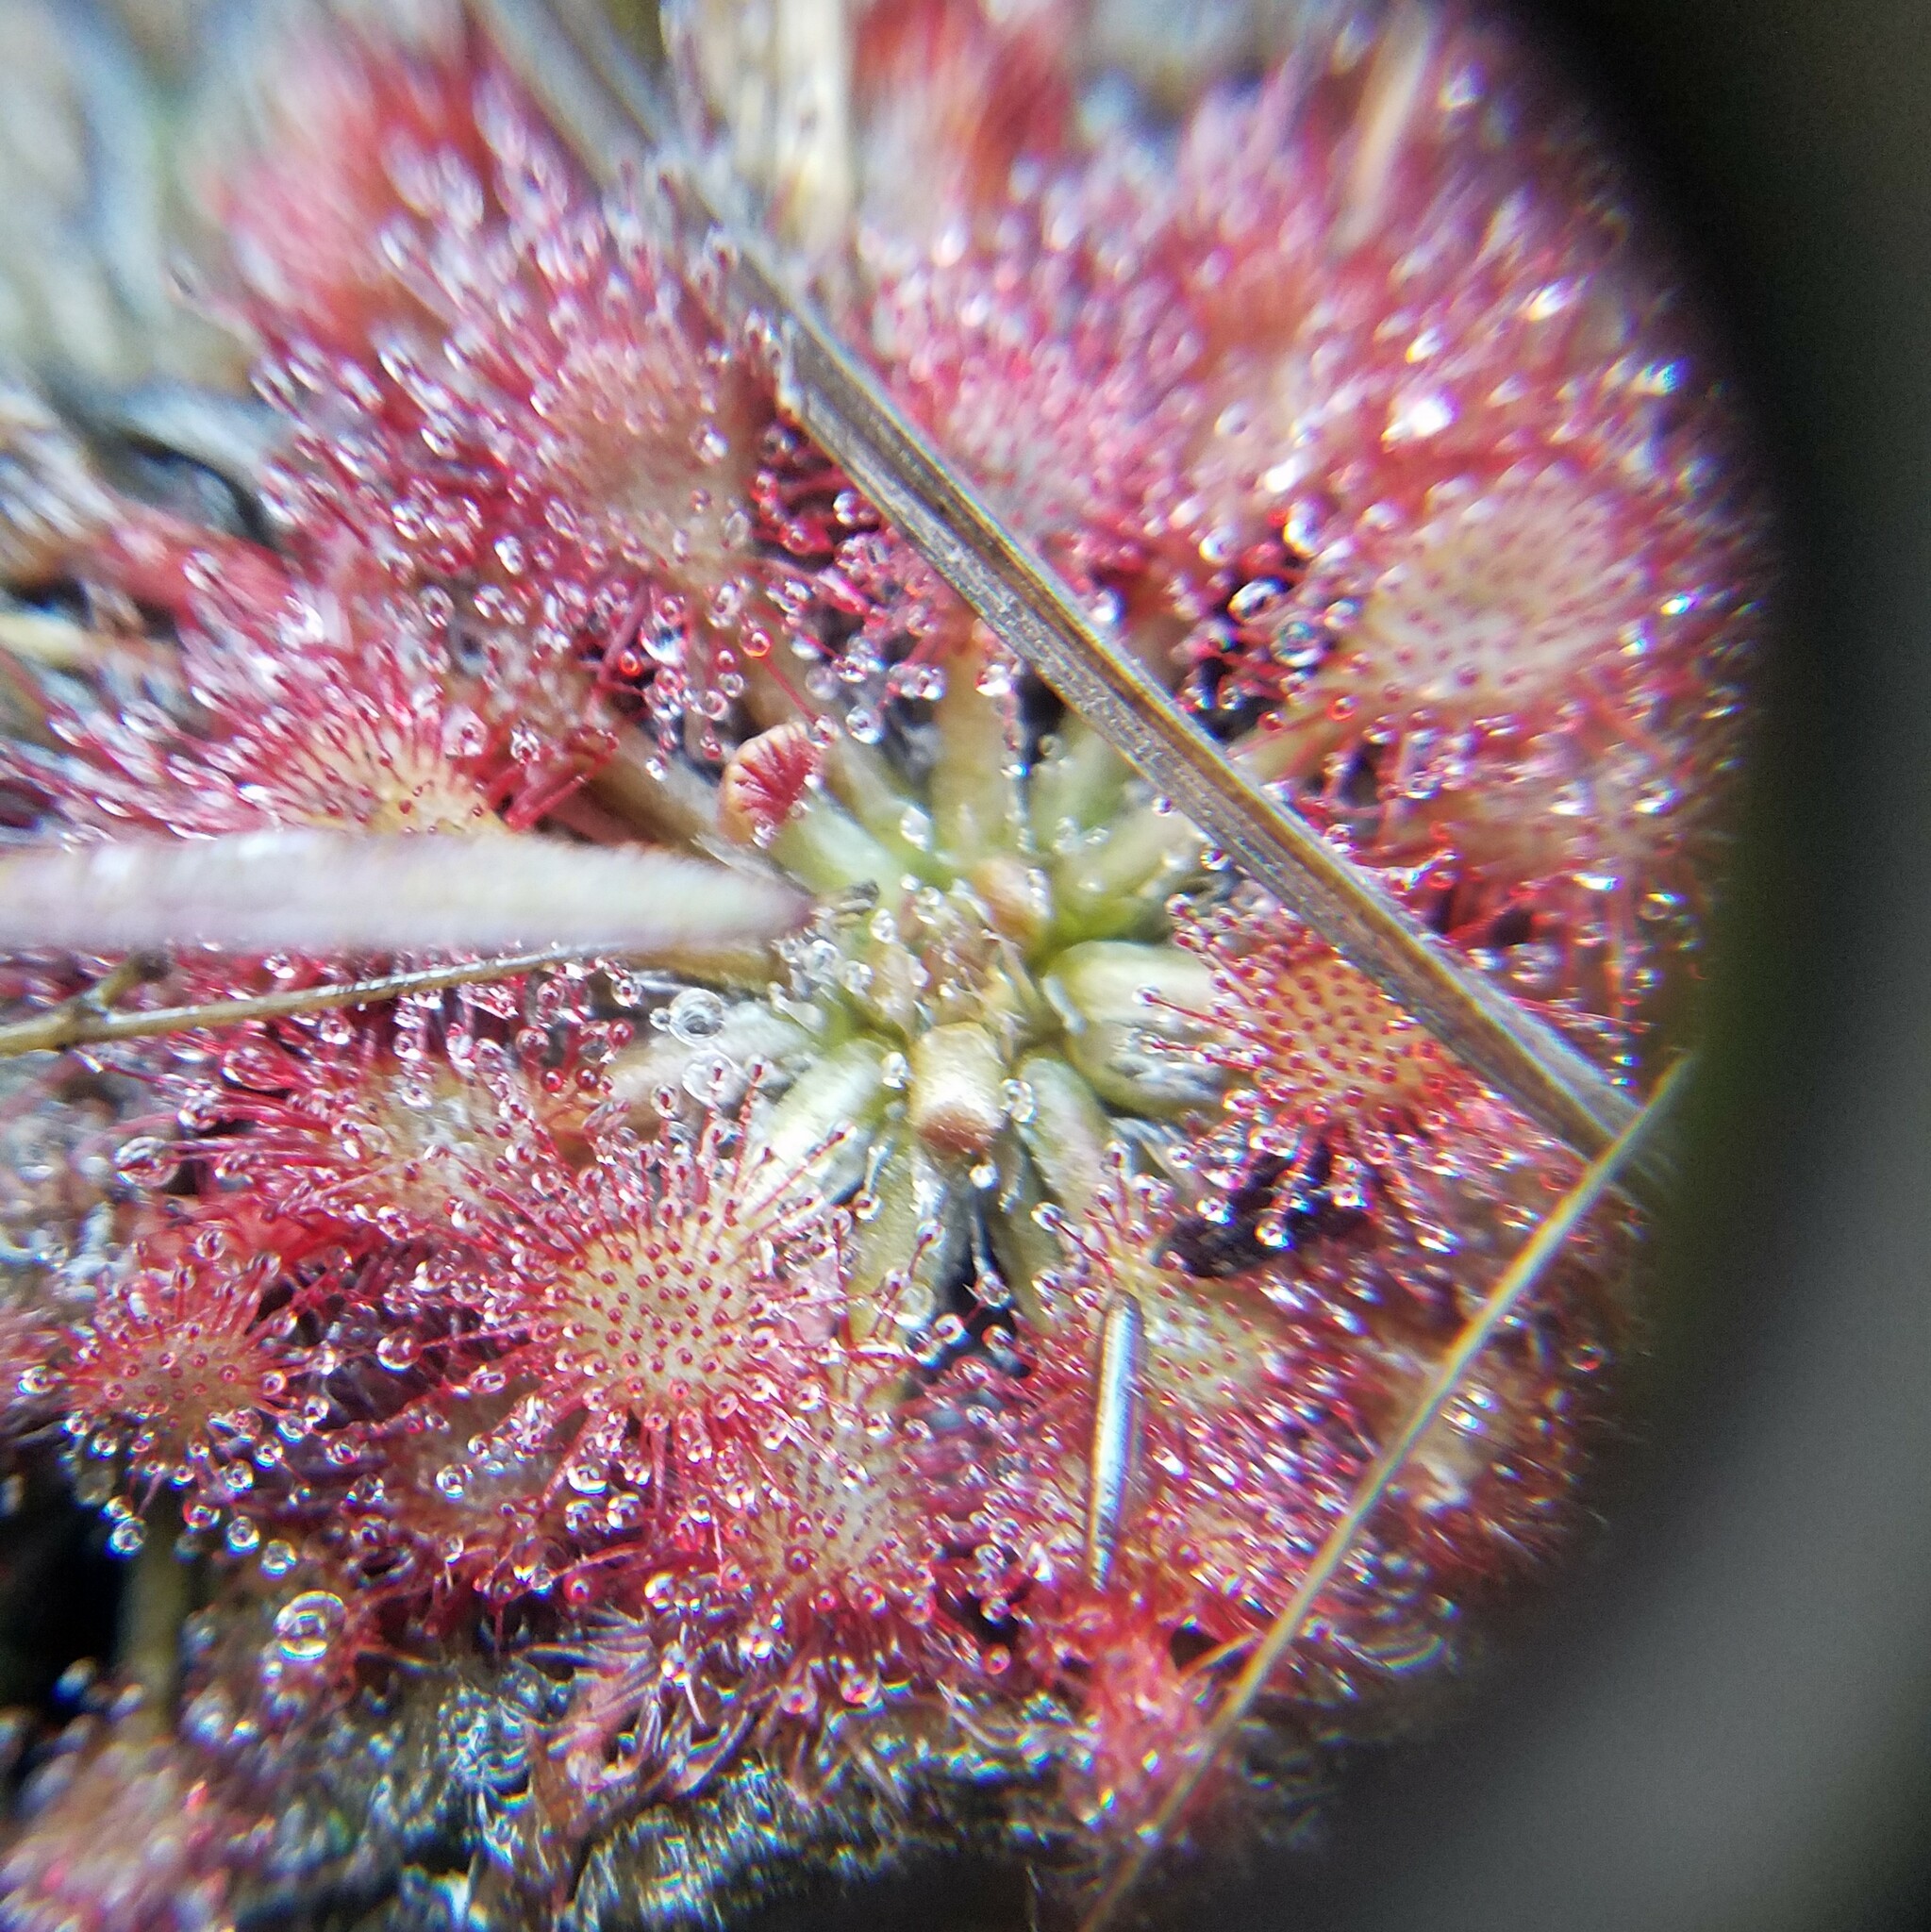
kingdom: Plantae
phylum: Tracheophyta
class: Magnoliopsida
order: Caryophyllales
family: Droseraceae
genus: Drosera
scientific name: Drosera capillaris
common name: Pink sundew
